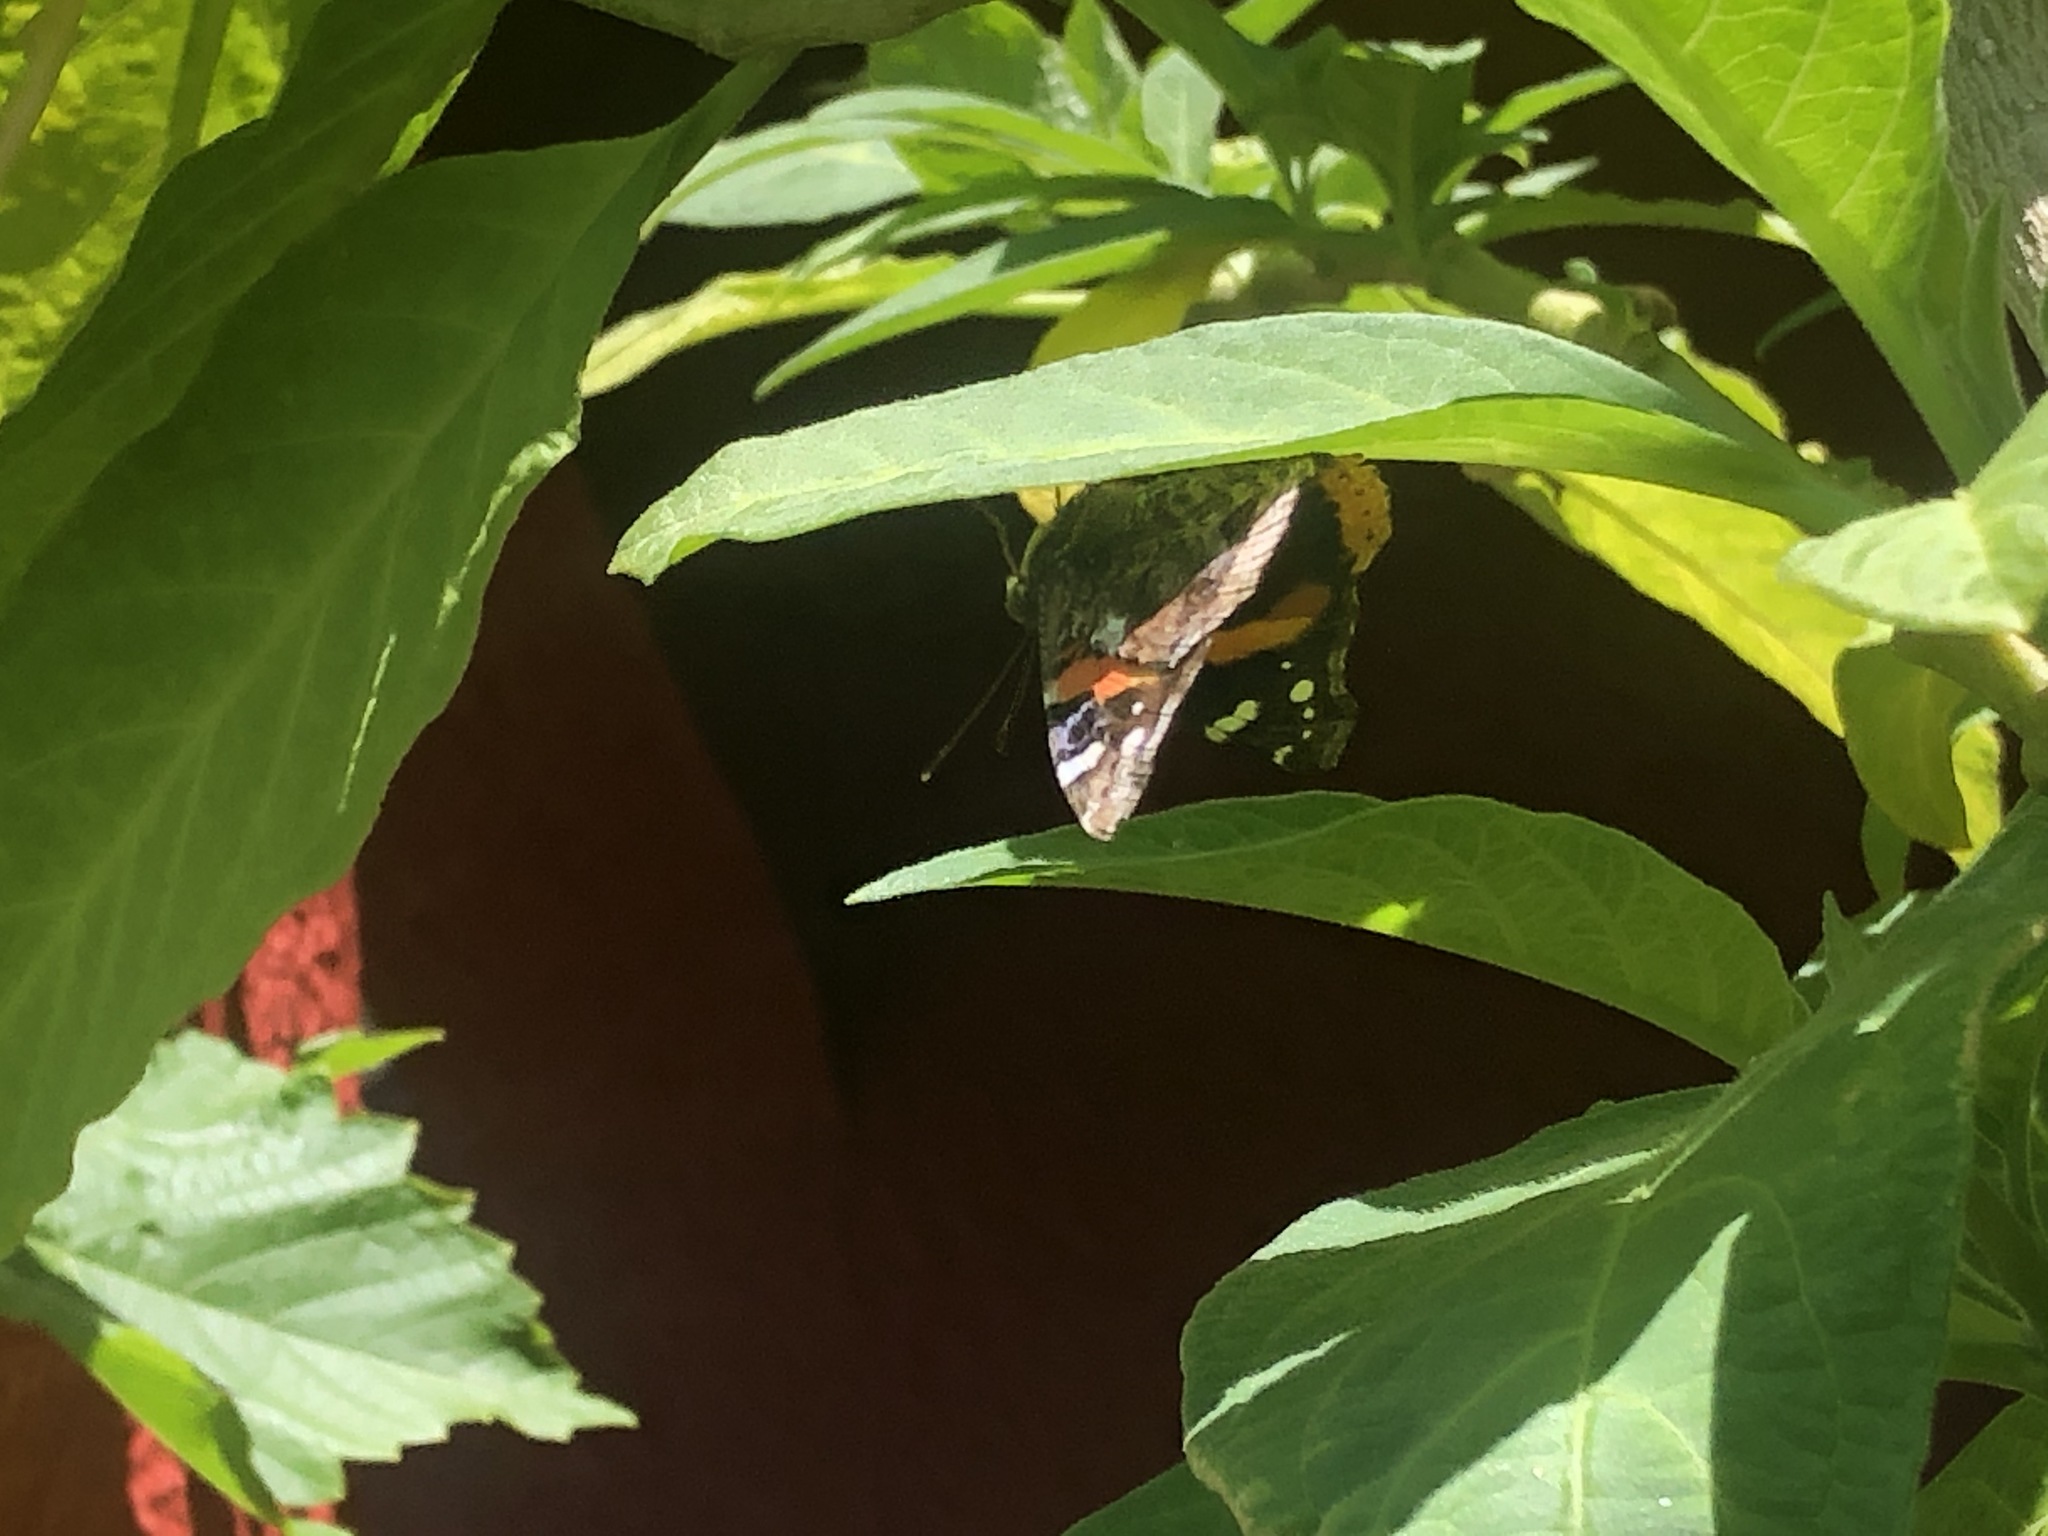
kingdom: Animalia
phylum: Arthropoda
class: Insecta
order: Lepidoptera
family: Nymphalidae
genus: Vanessa
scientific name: Vanessa atalanta
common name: Red admiral
